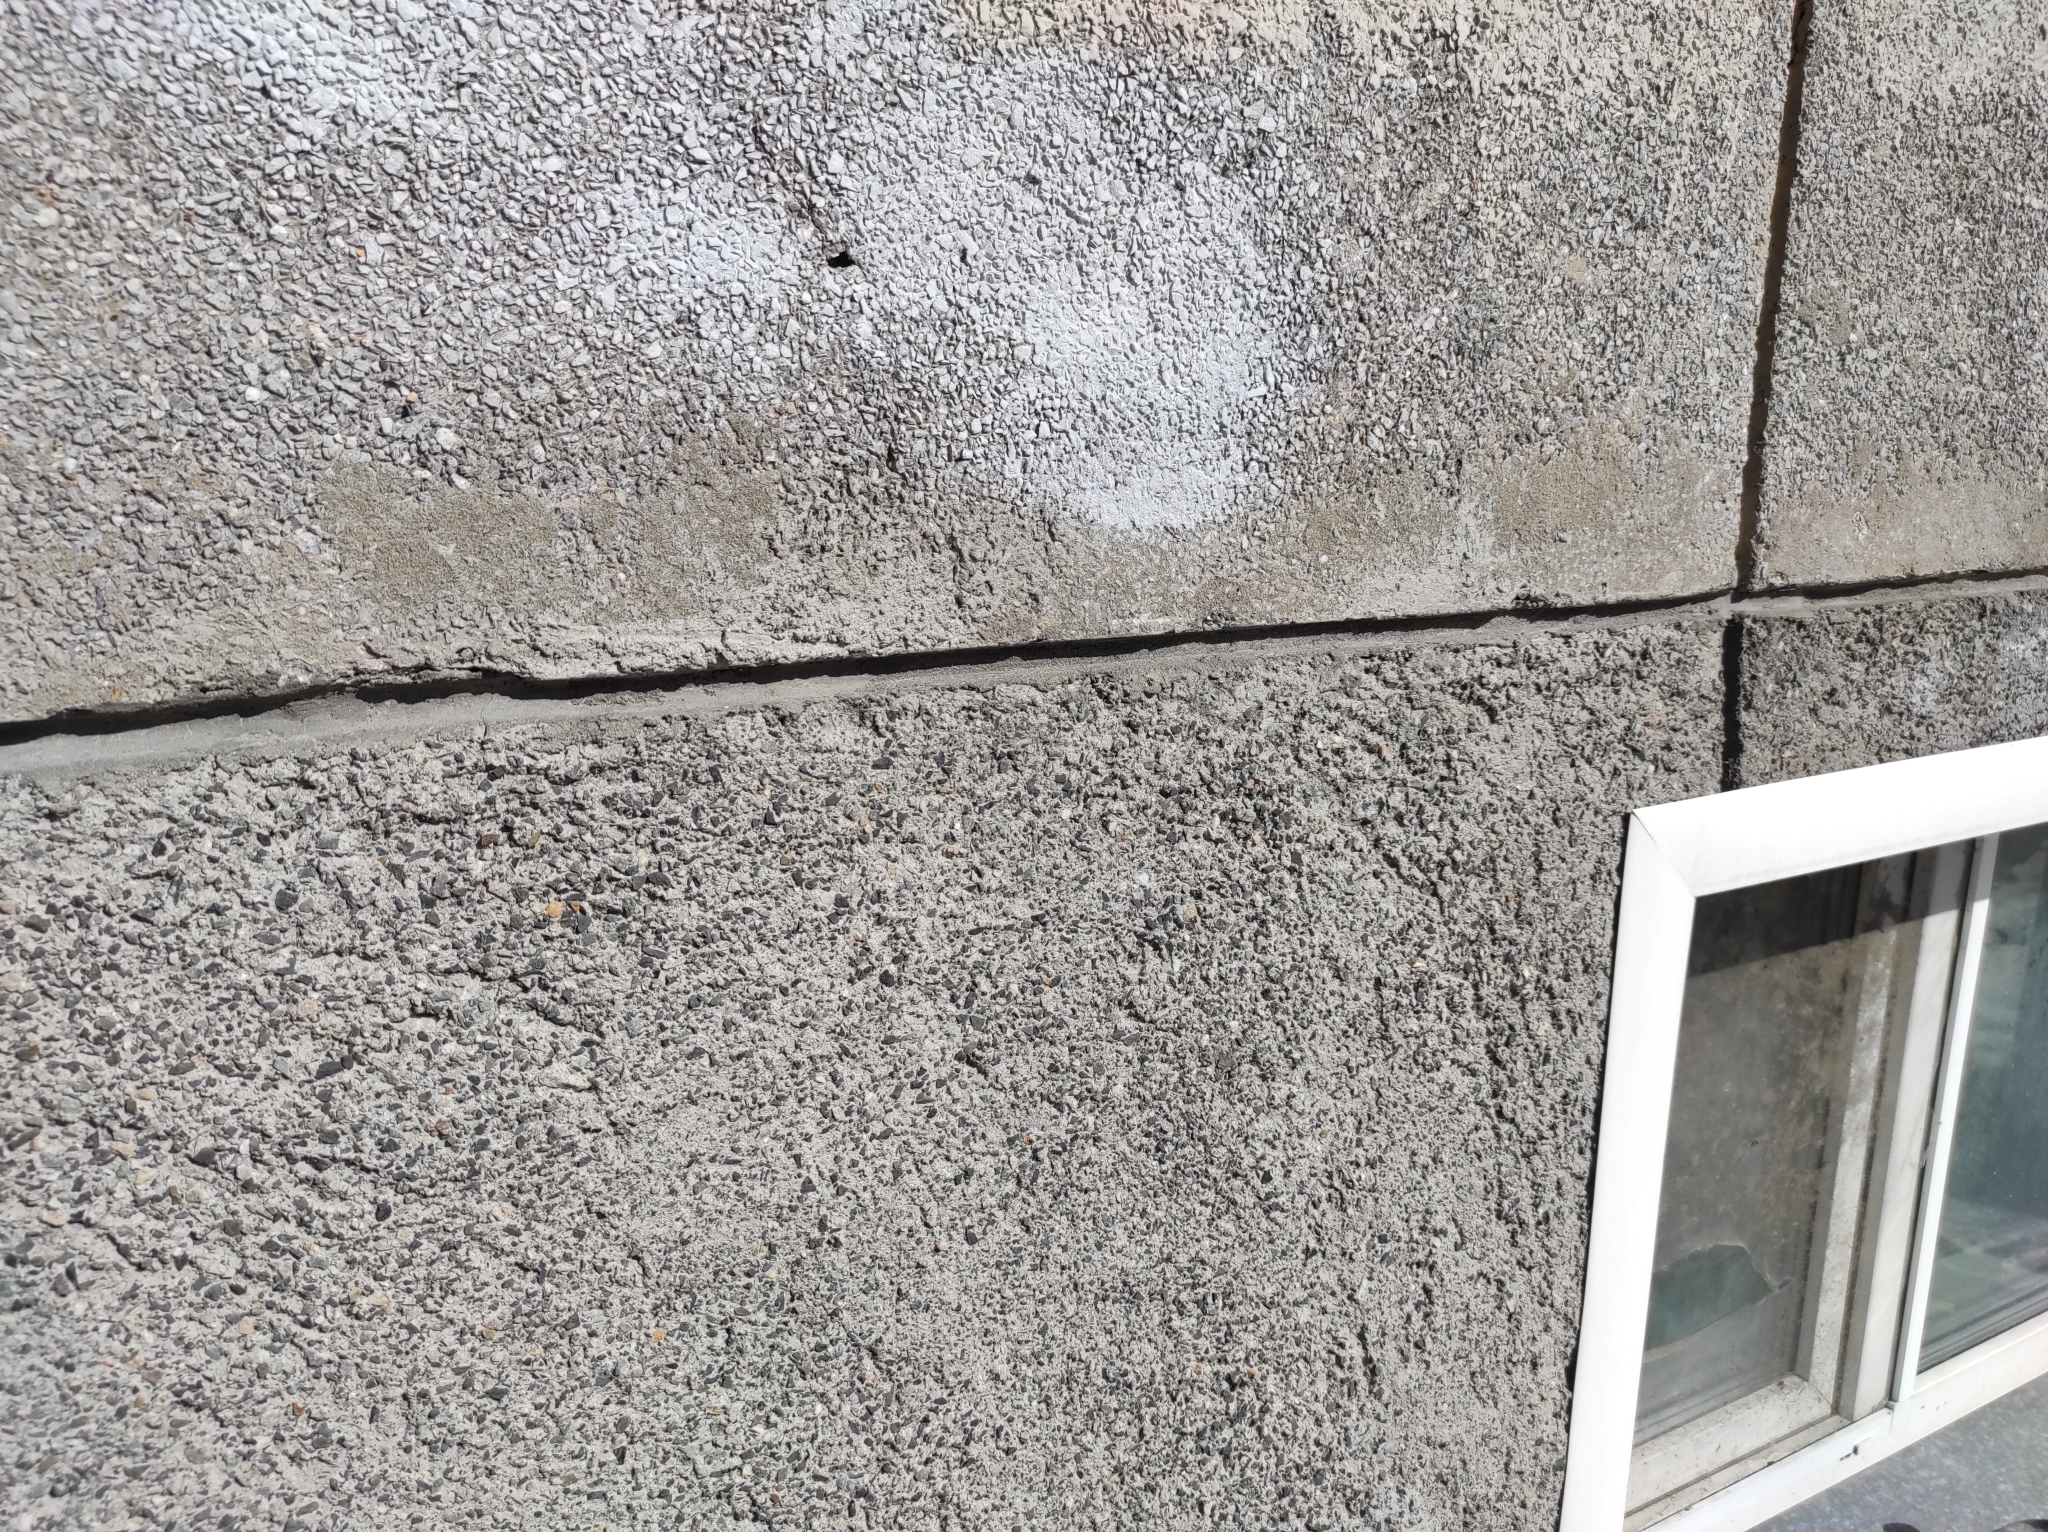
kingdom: Animalia
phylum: Chordata
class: Aves
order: Columbiformes
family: Columbidae
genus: Columba
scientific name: Columba livia
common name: Rock pigeon
